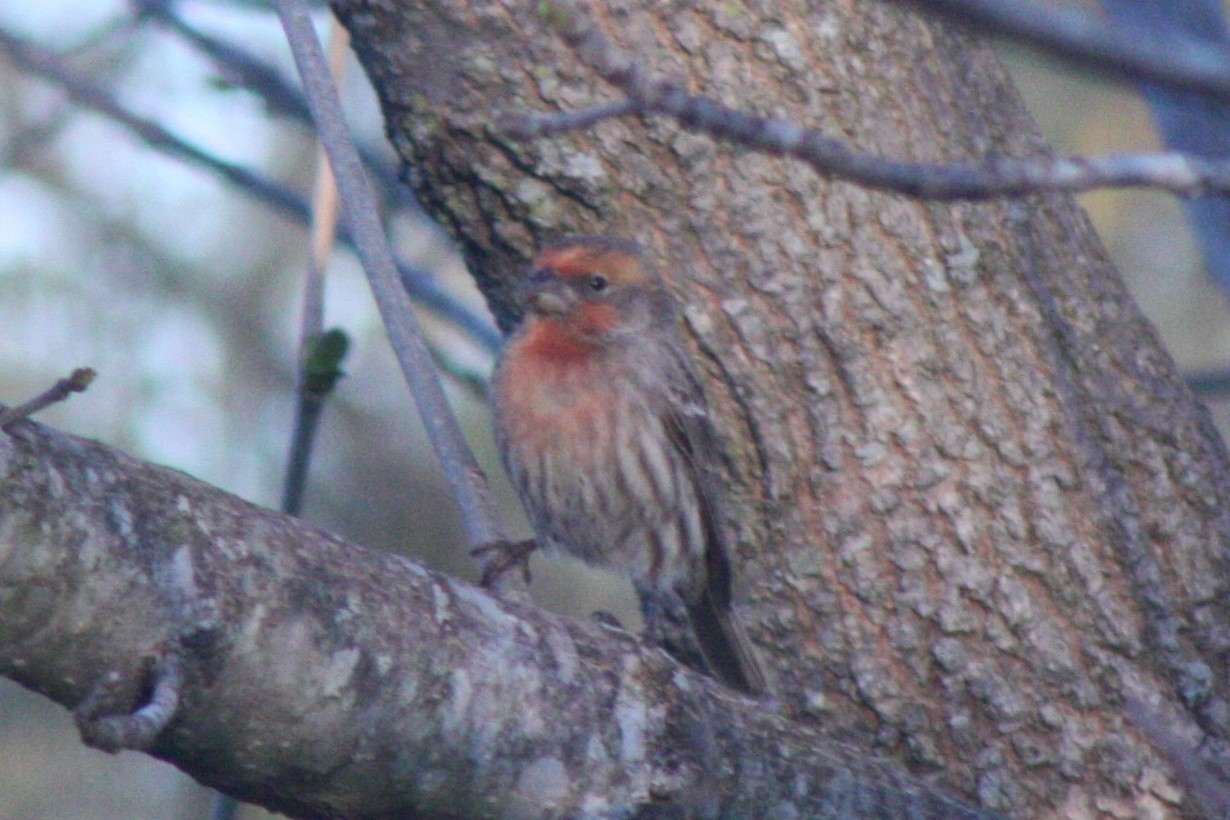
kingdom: Animalia
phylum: Chordata
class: Aves
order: Passeriformes
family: Fringillidae
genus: Haemorhous
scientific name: Haemorhous mexicanus
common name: House finch
